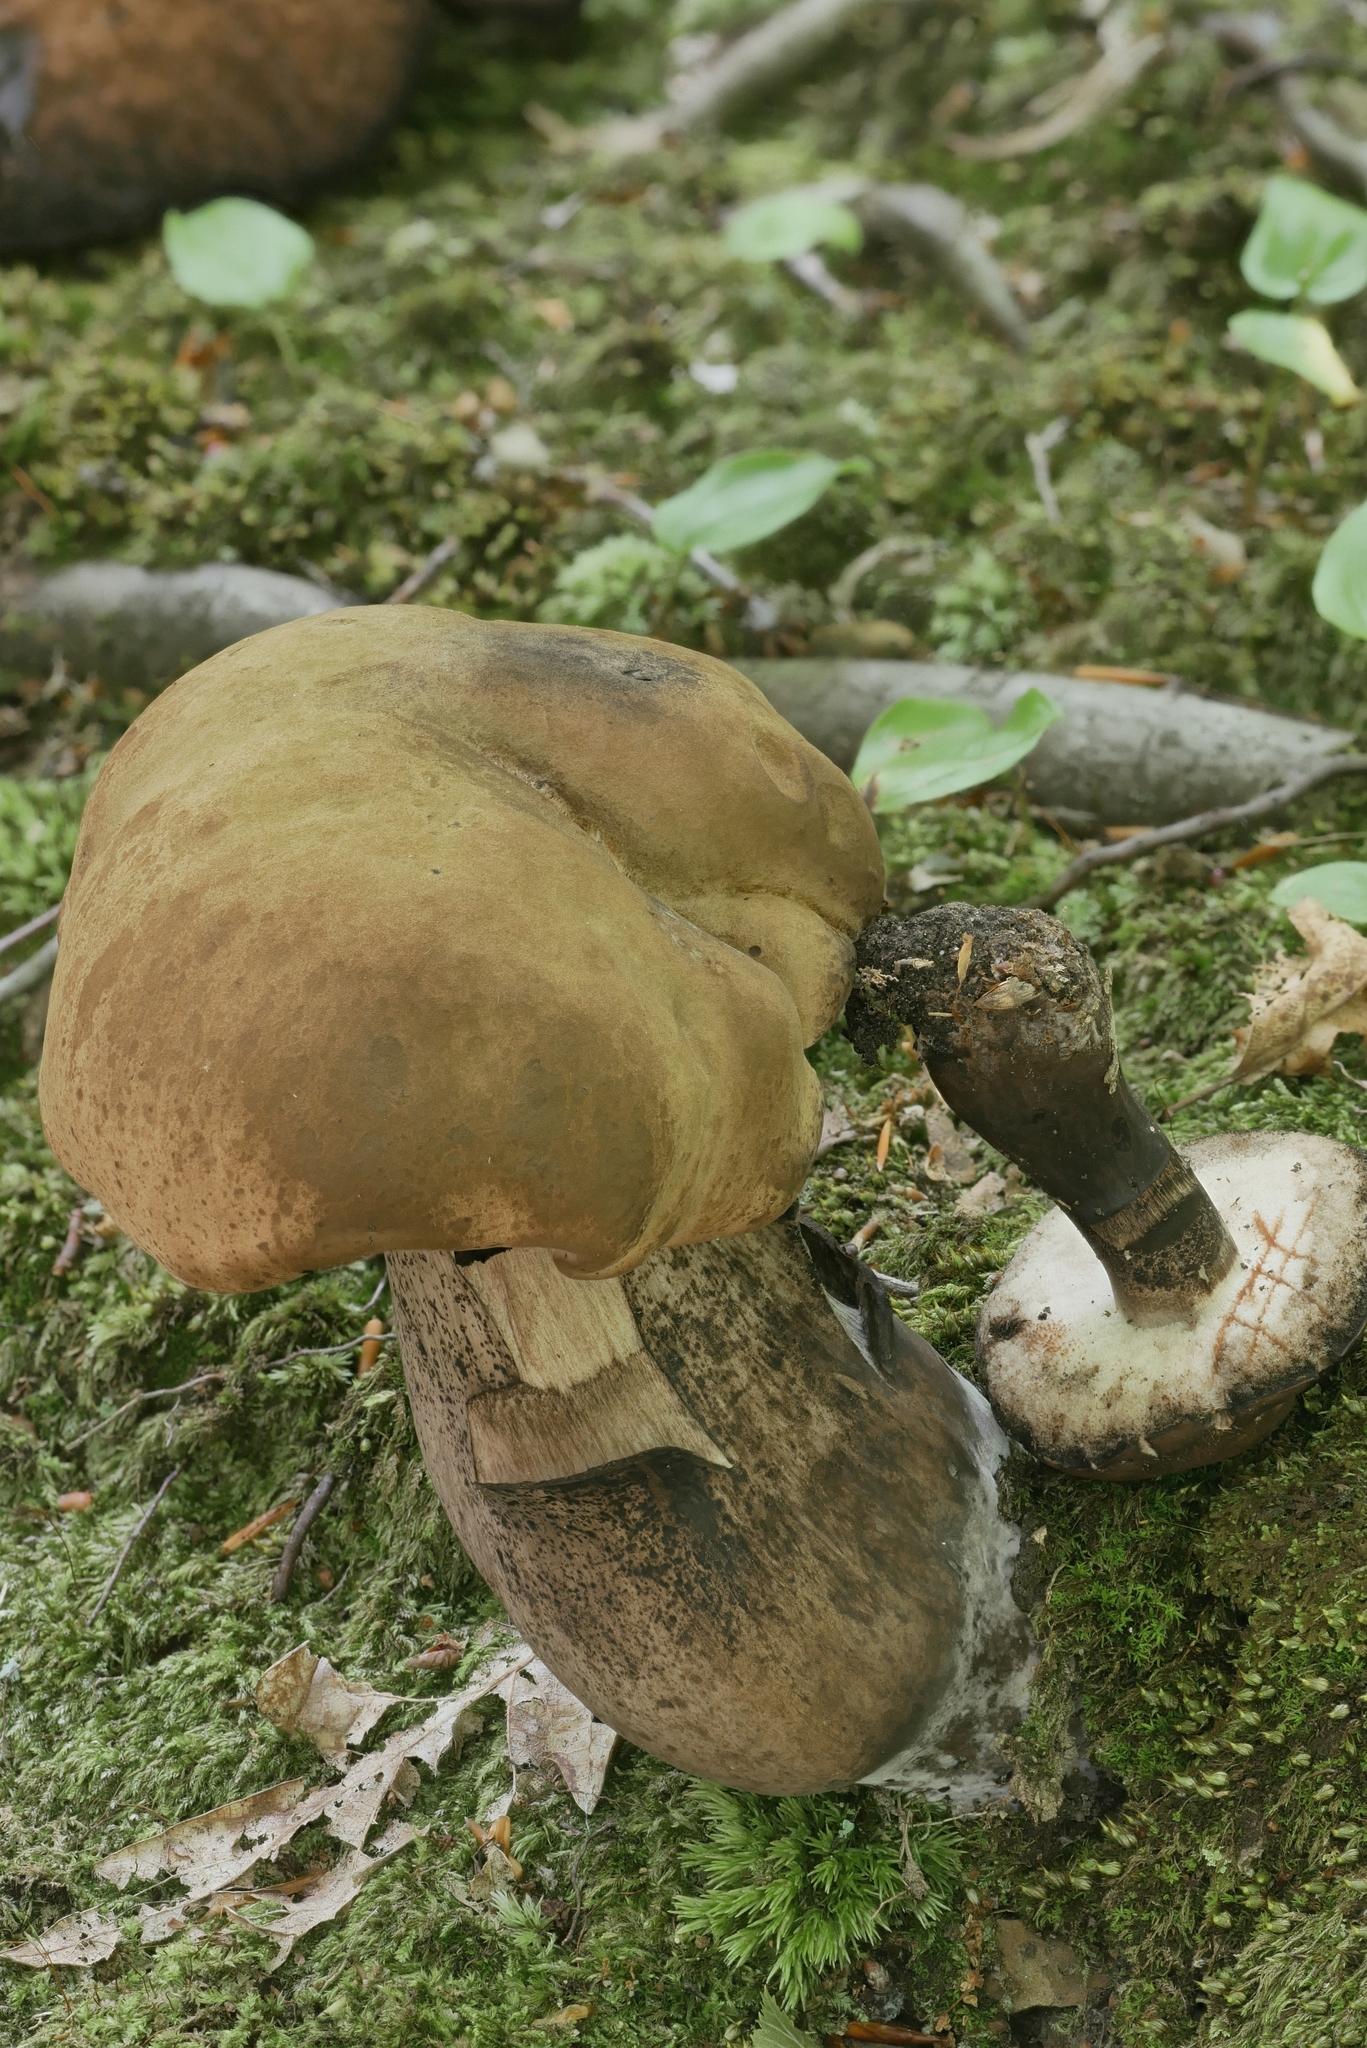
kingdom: Fungi
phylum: Basidiomycota
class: Agaricomycetes
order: Boletales
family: Boletaceae
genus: Tylopilus
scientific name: Tylopilus atronicotianus
